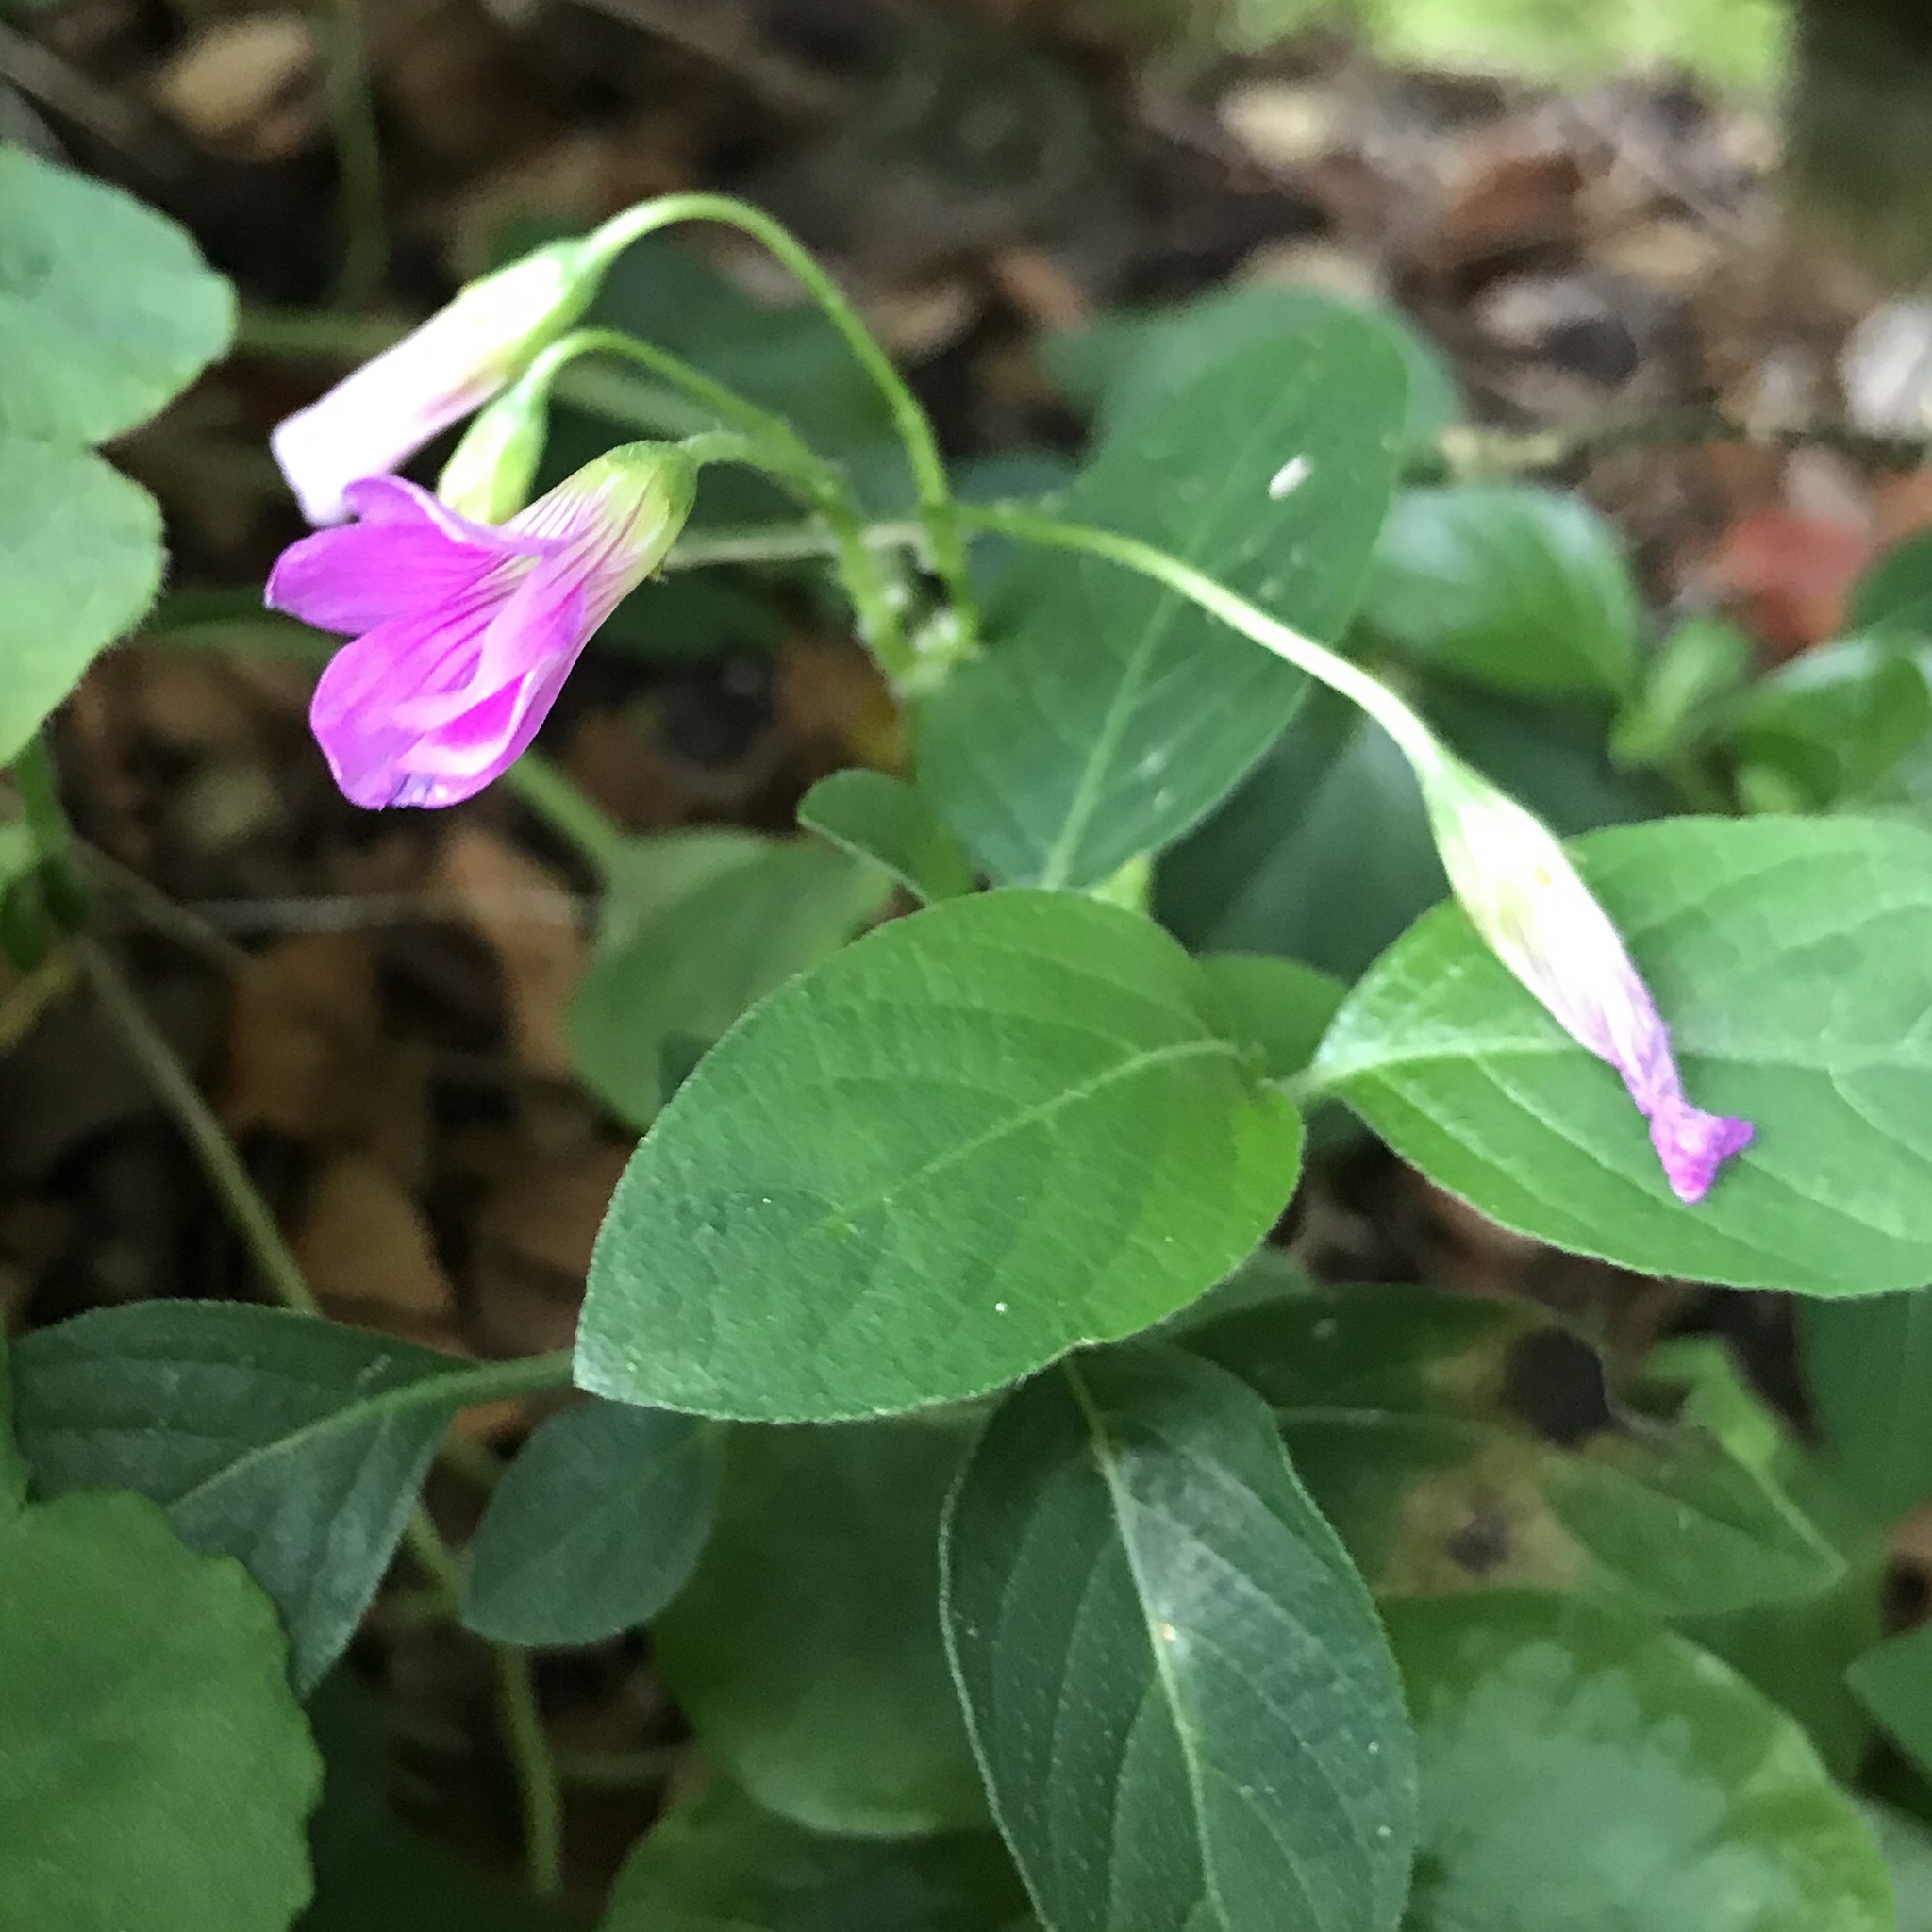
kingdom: Plantae
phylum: Tracheophyta
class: Magnoliopsida
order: Oxalidales
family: Oxalidaceae
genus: Oxalis
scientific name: Oxalis debilis
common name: Large-flowered pink-sorrel
